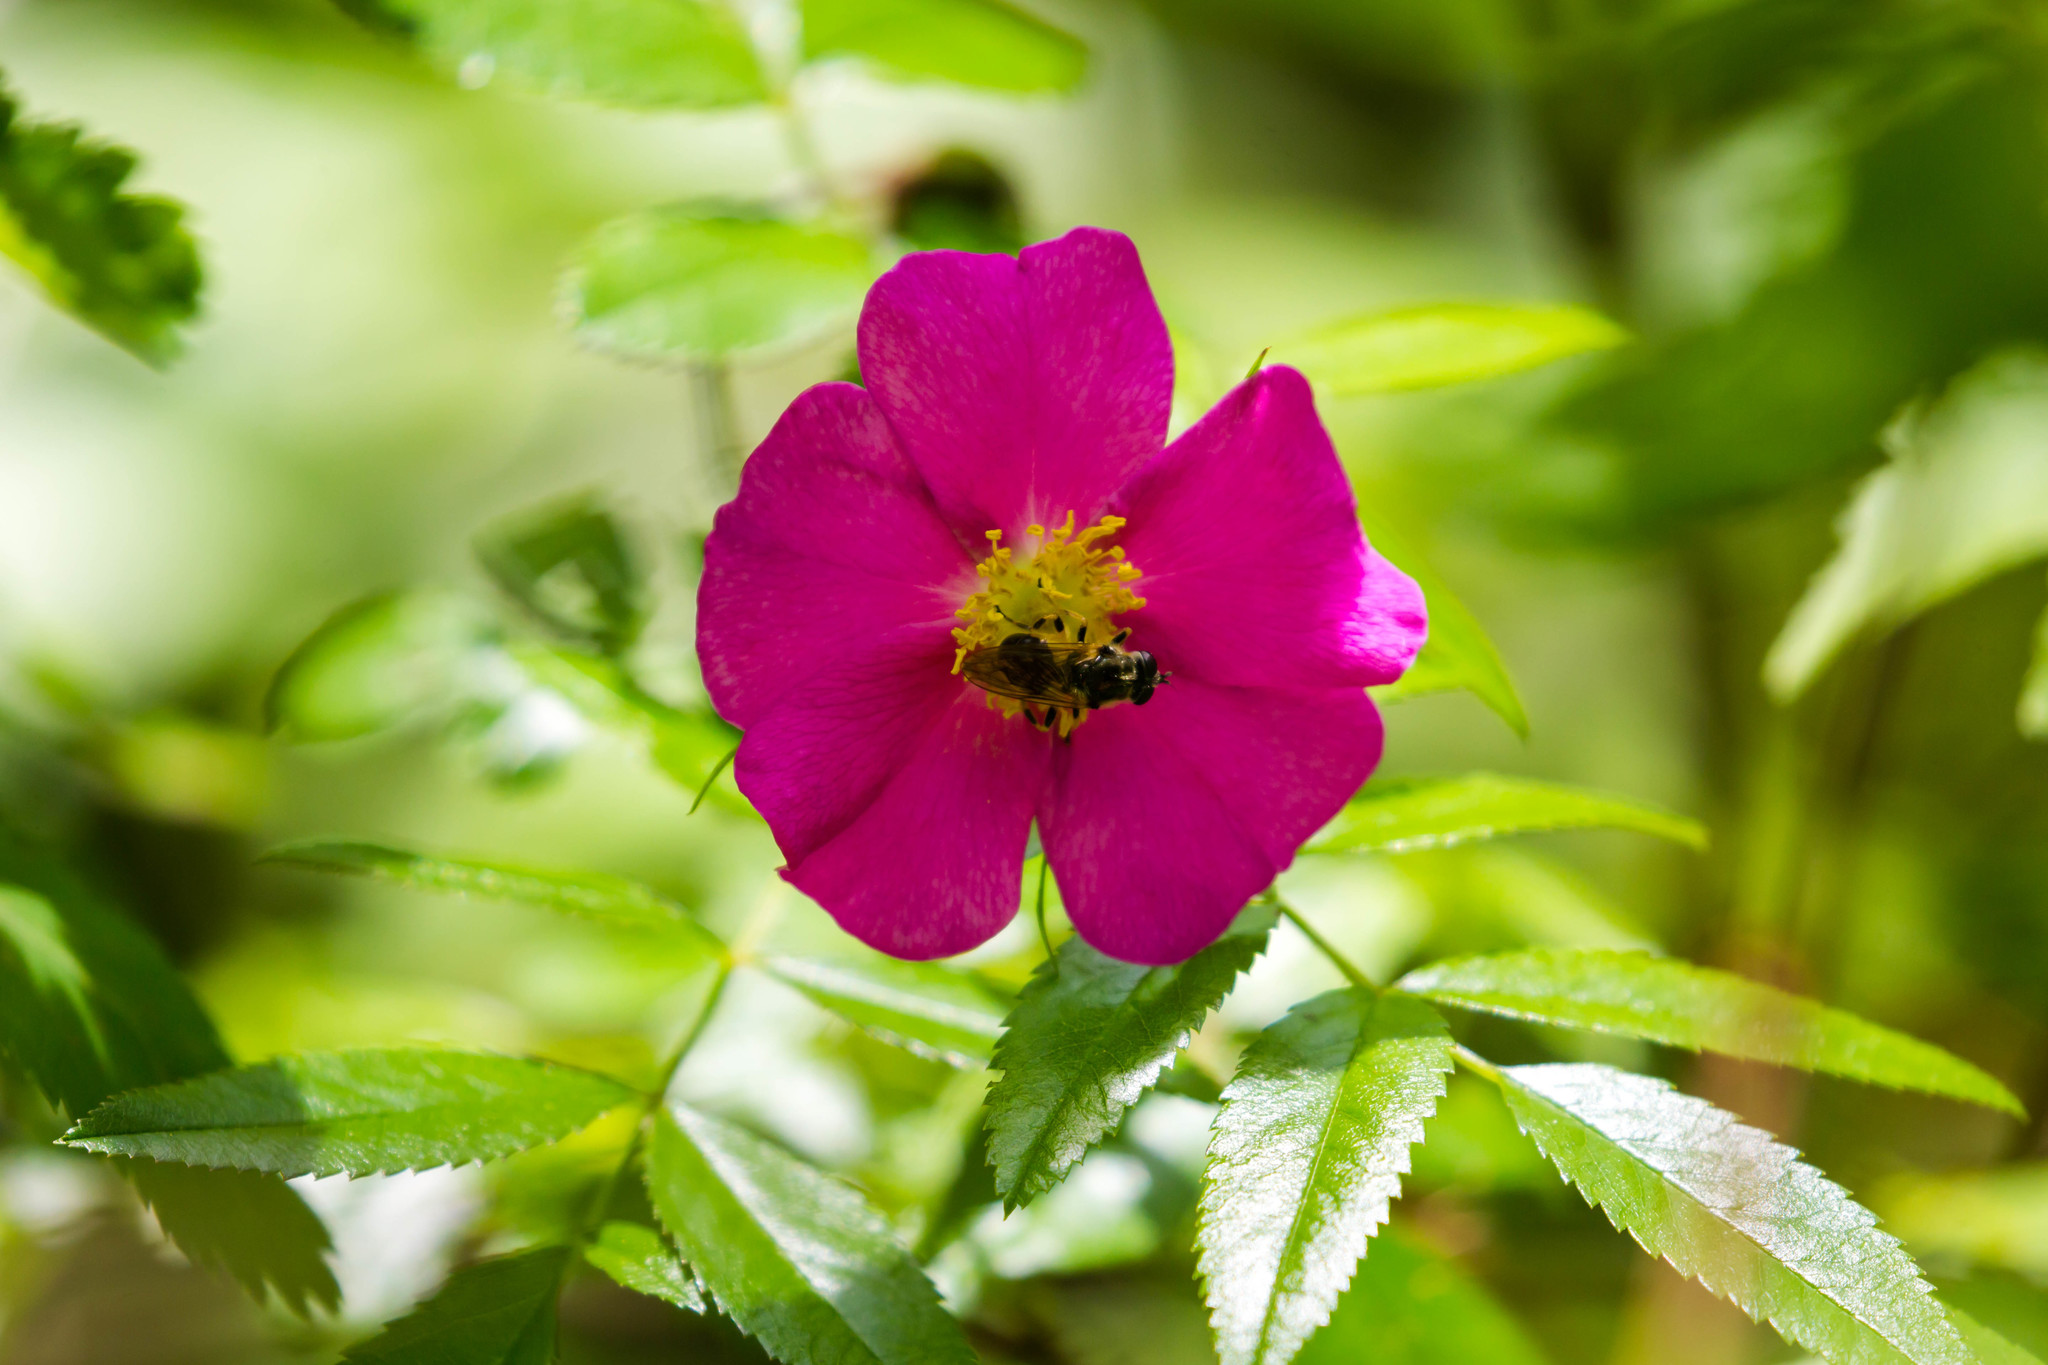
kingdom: Animalia
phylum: Arthropoda
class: Insecta
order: Diptera
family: Conopidae
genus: Dalmannia
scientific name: Dalmannia vitiosa
